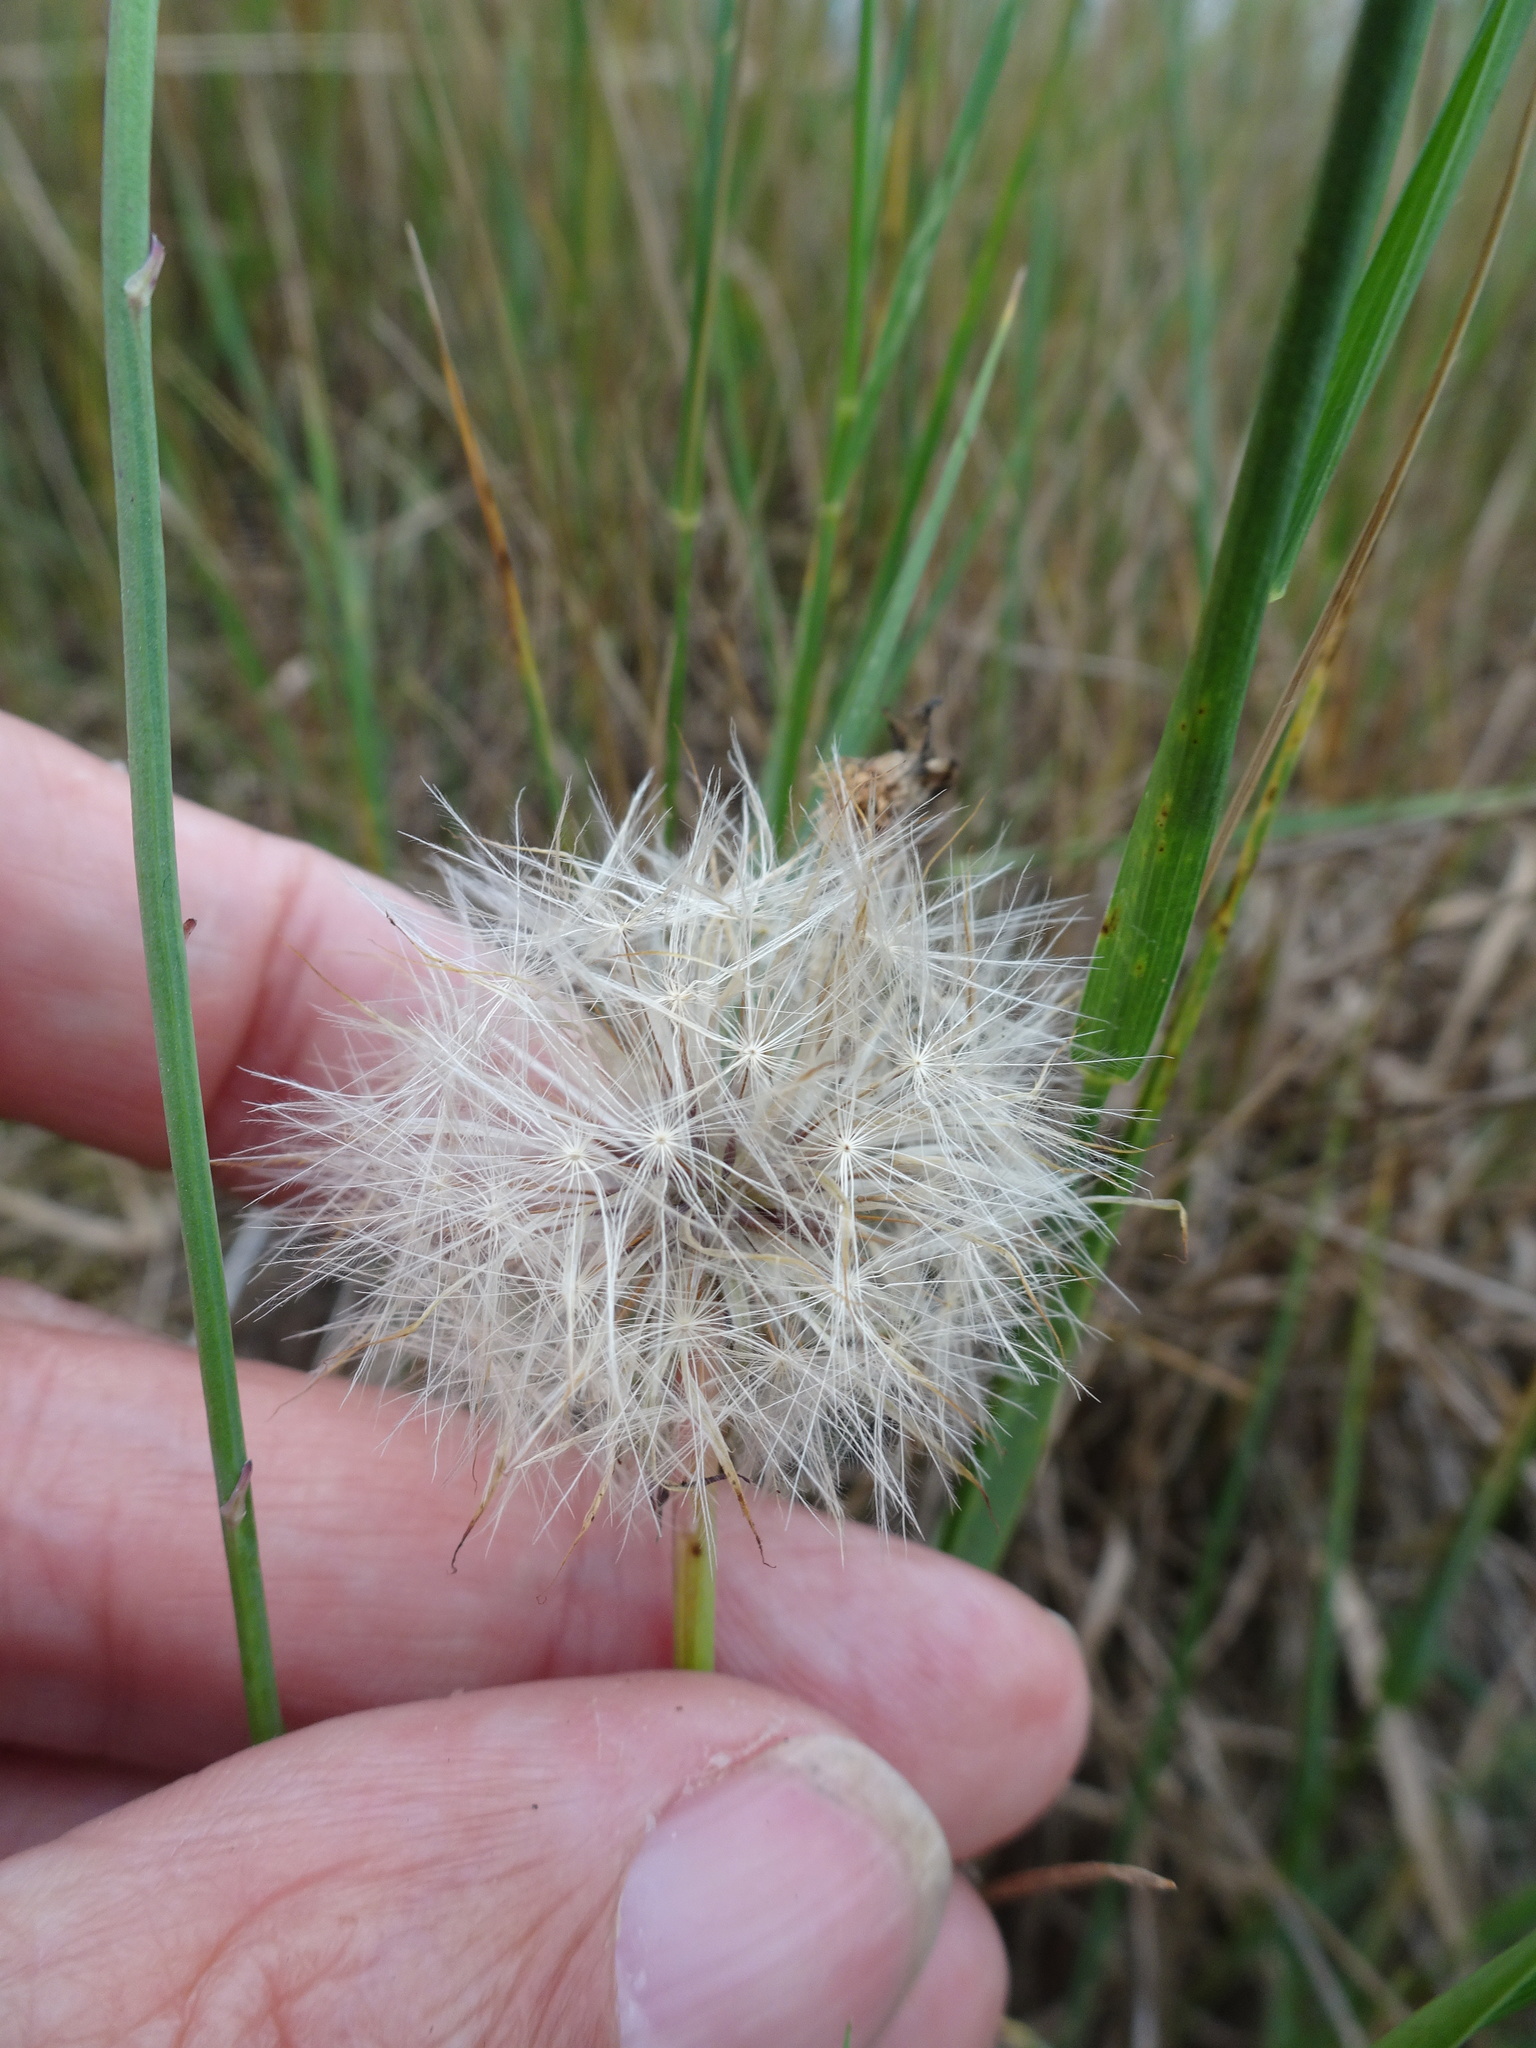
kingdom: Plantae
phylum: Tracheophyta
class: Magnoliopsida
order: Asterales
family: Asteraceae
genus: Hypochaeris
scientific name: Hypochaeris radicata
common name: Flatweed
